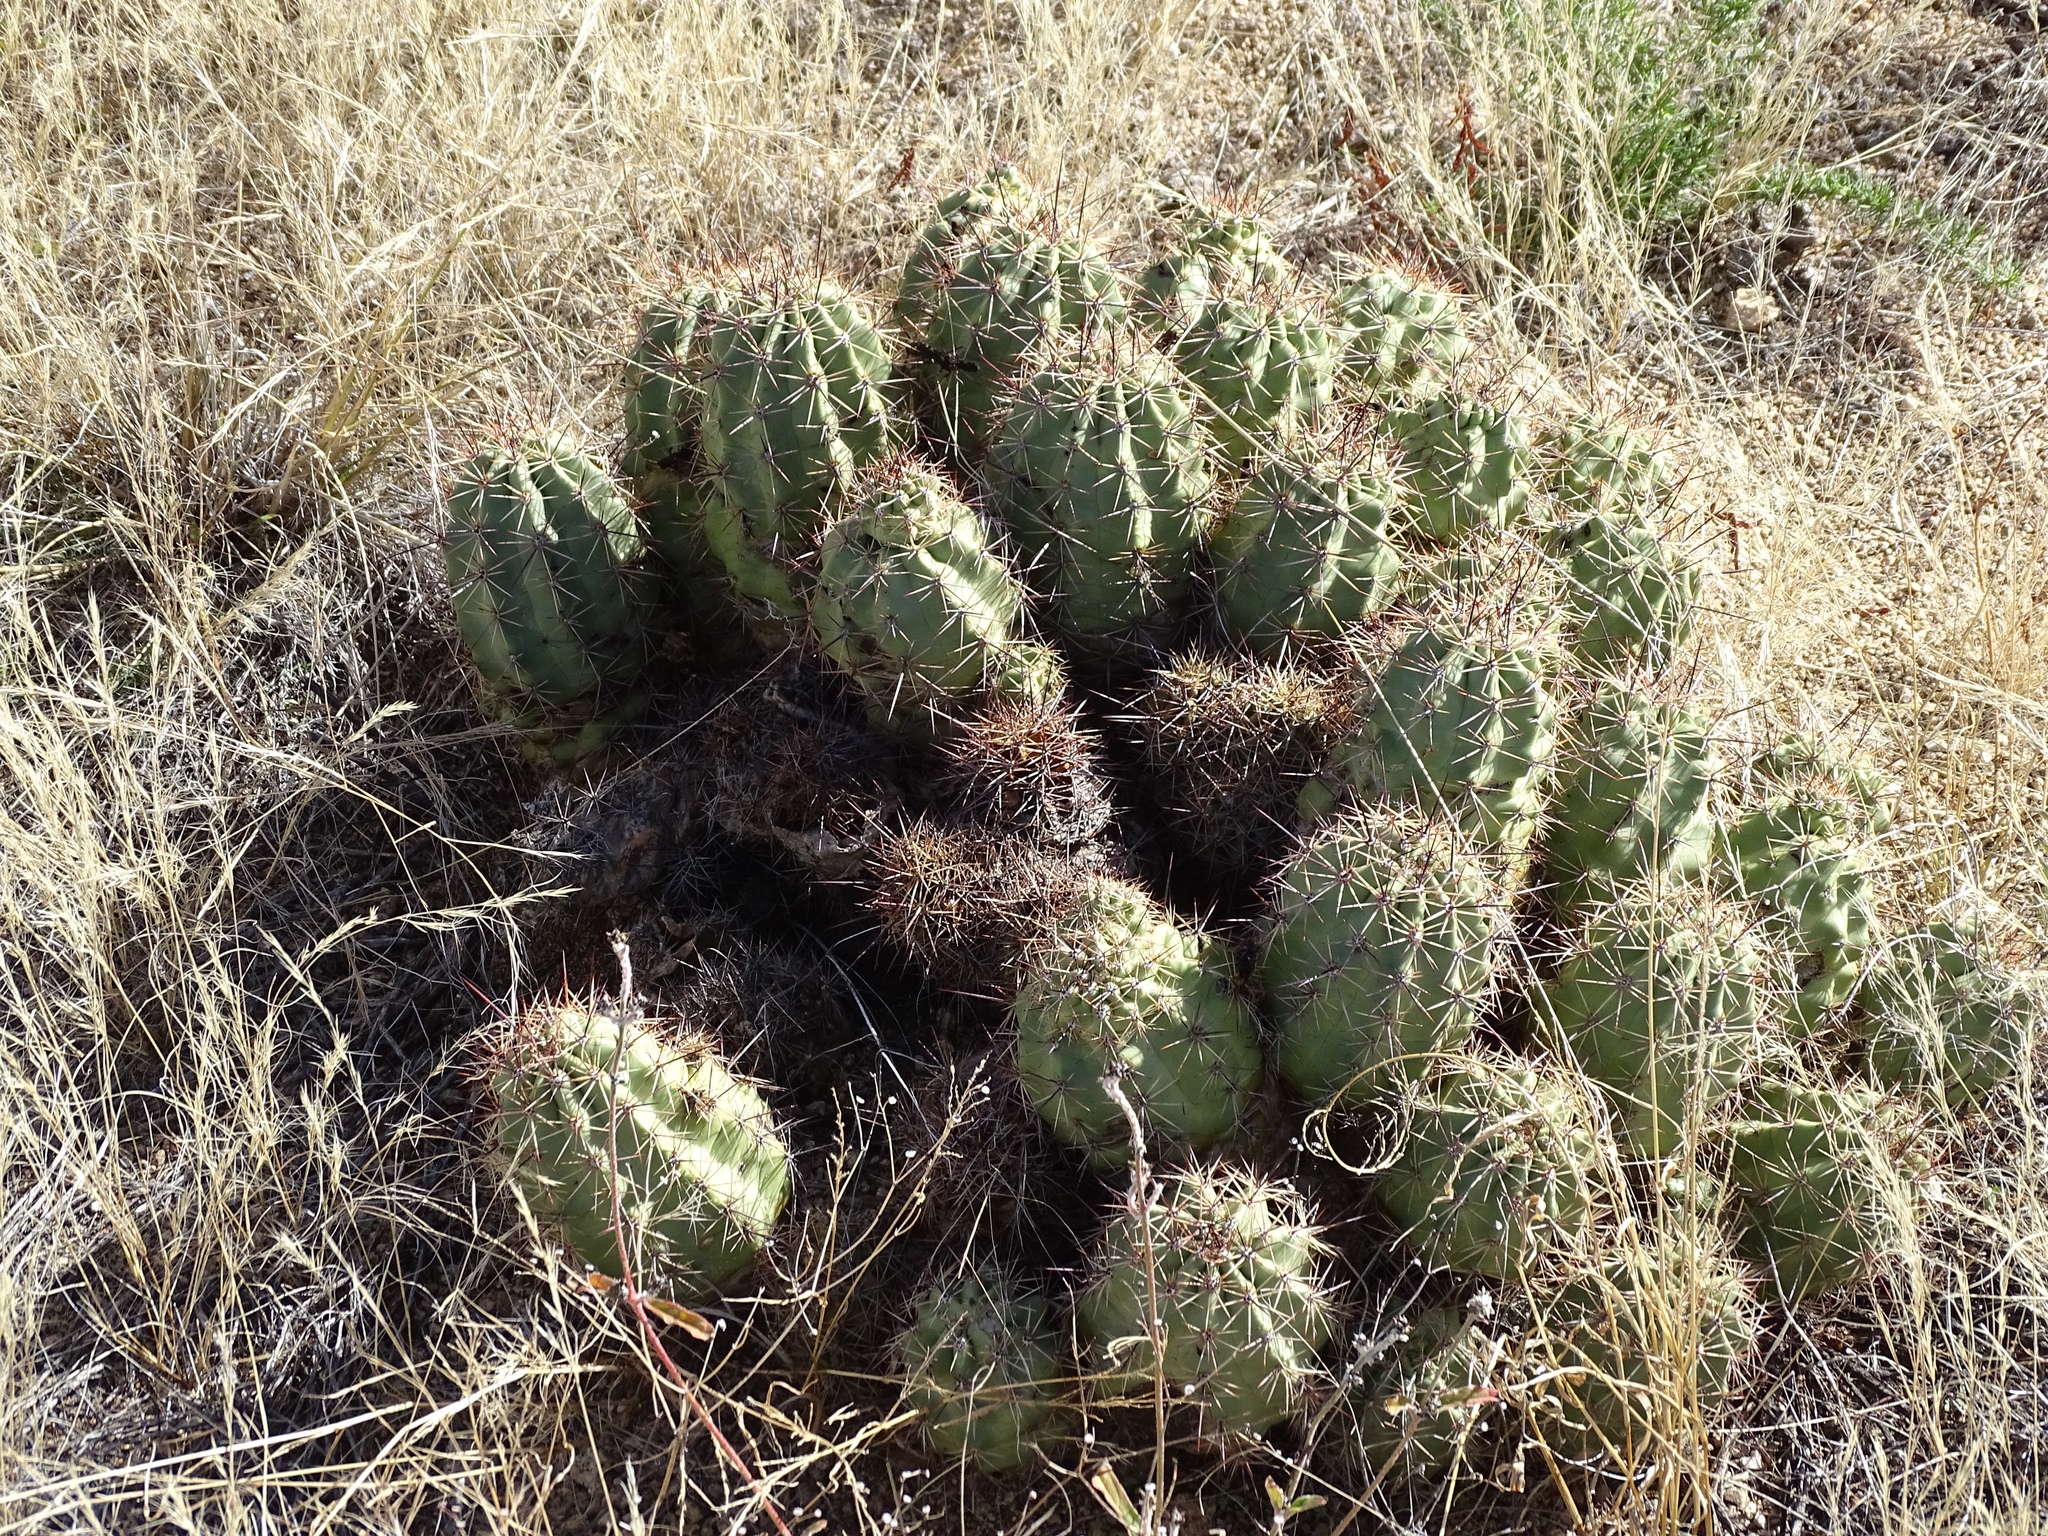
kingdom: Plantae
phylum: Tracheophyta
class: Magnoliopsida
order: Caryophyllales
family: Cactaceae
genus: Echinocereus
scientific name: Echinocereus coccineus
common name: Scarlet hedgehog cactus
